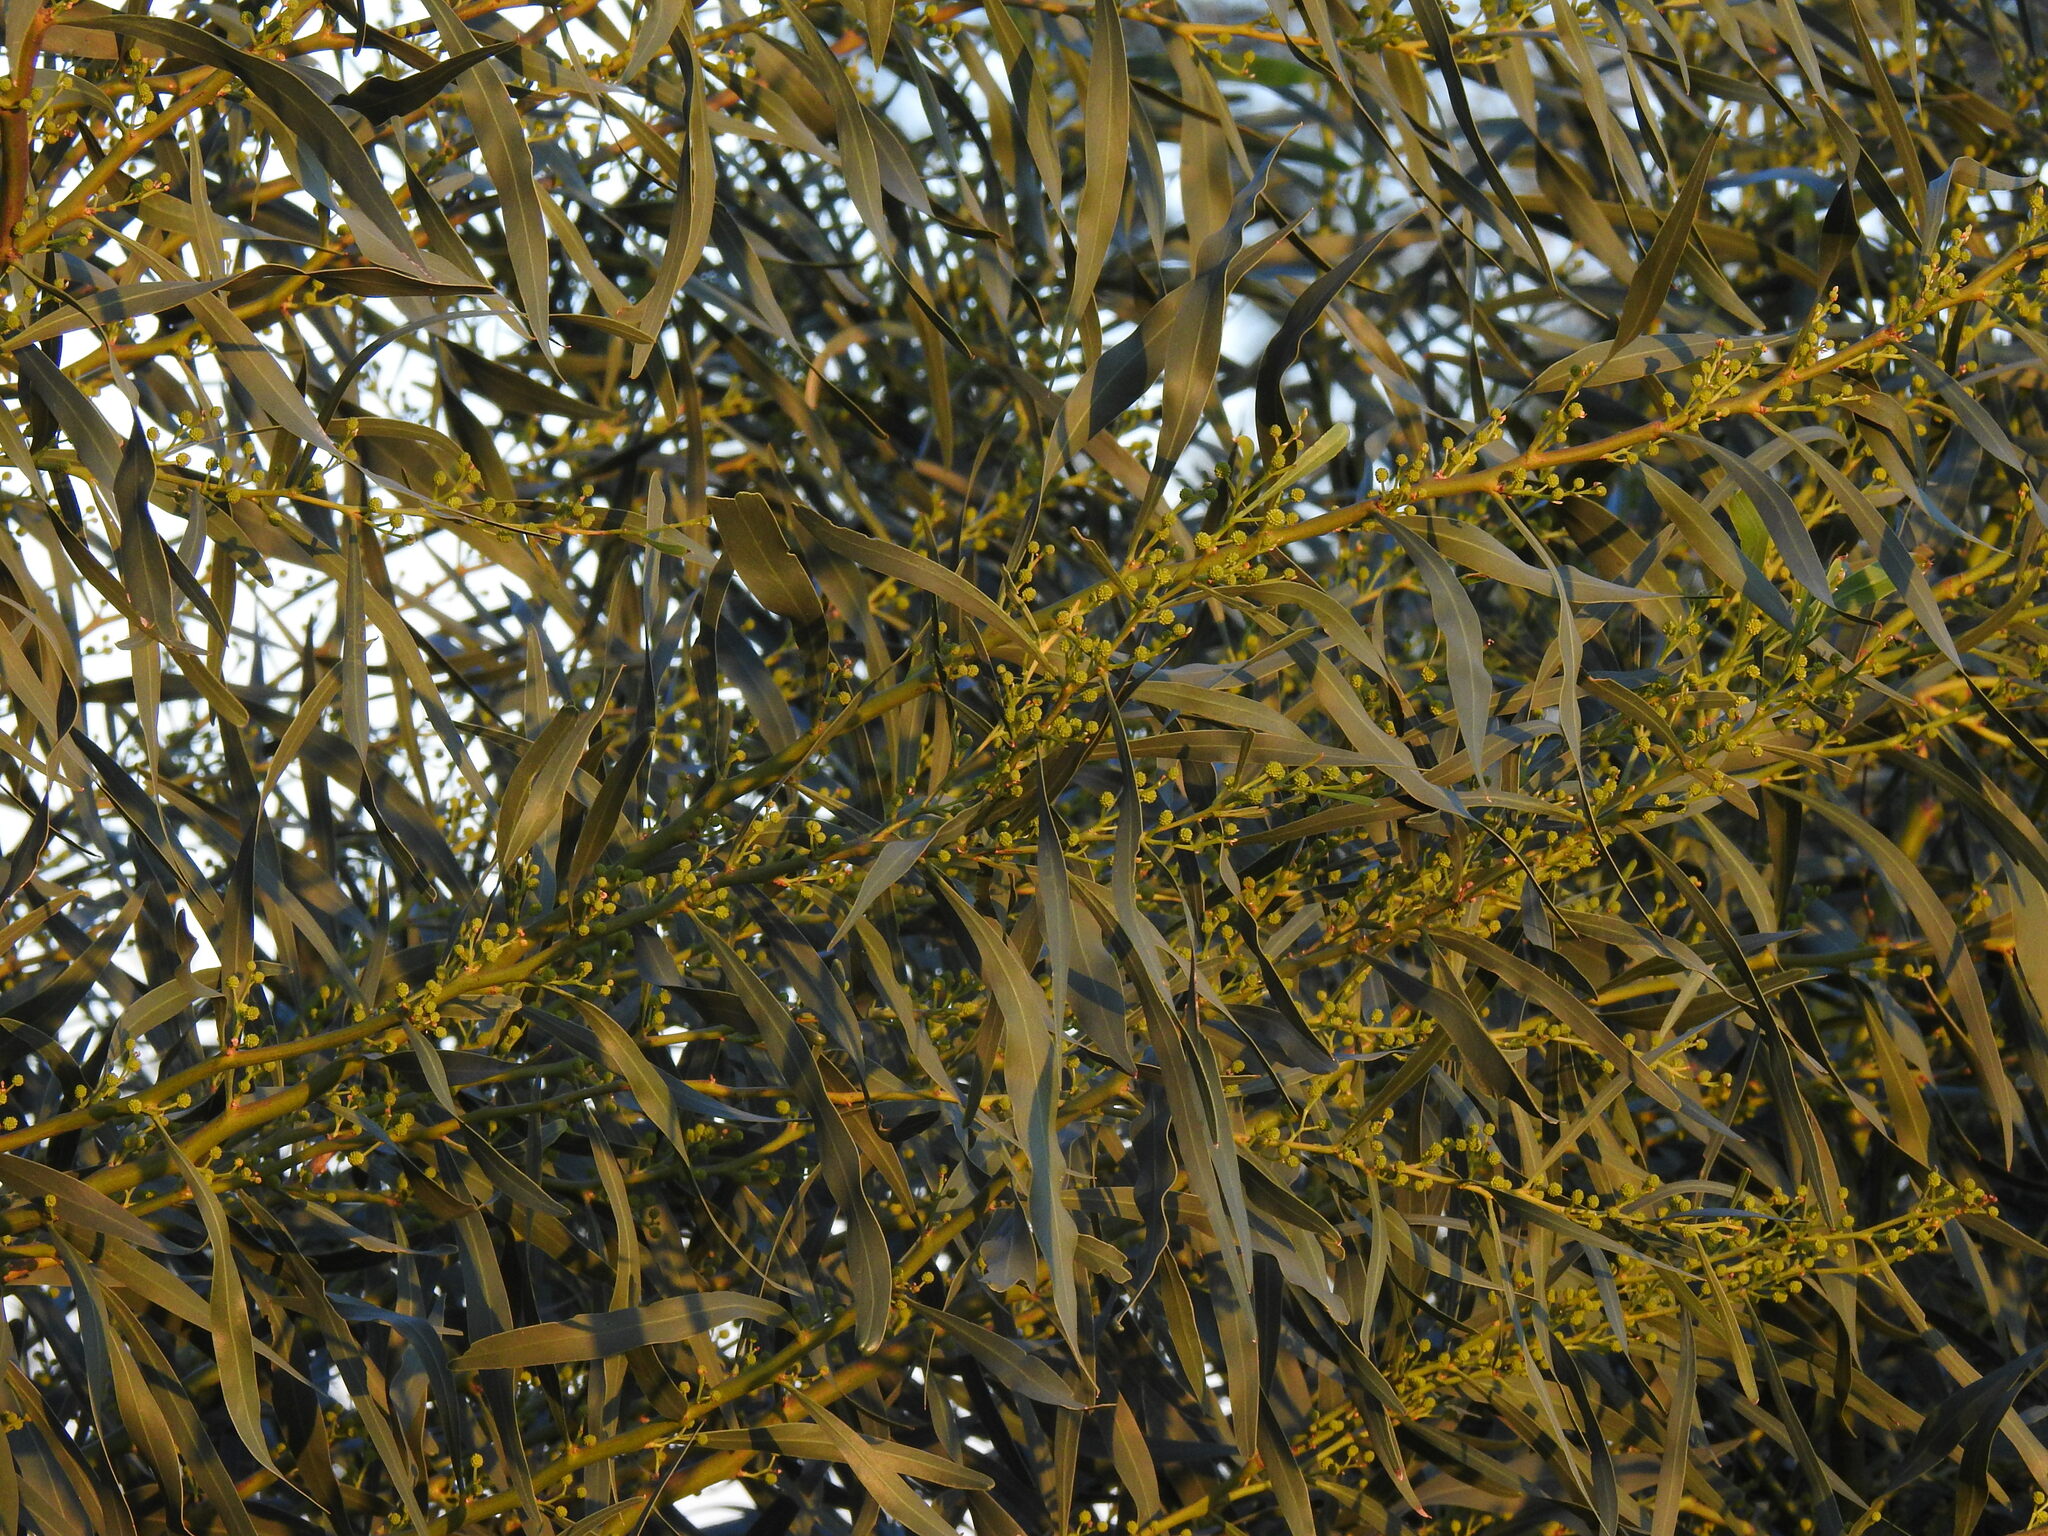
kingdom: Plantae
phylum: Tracheophyta
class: Magnoliopsida
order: Fabales
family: Fabaceae
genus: Acacia
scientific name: Acacia saligna
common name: Orange wattle
